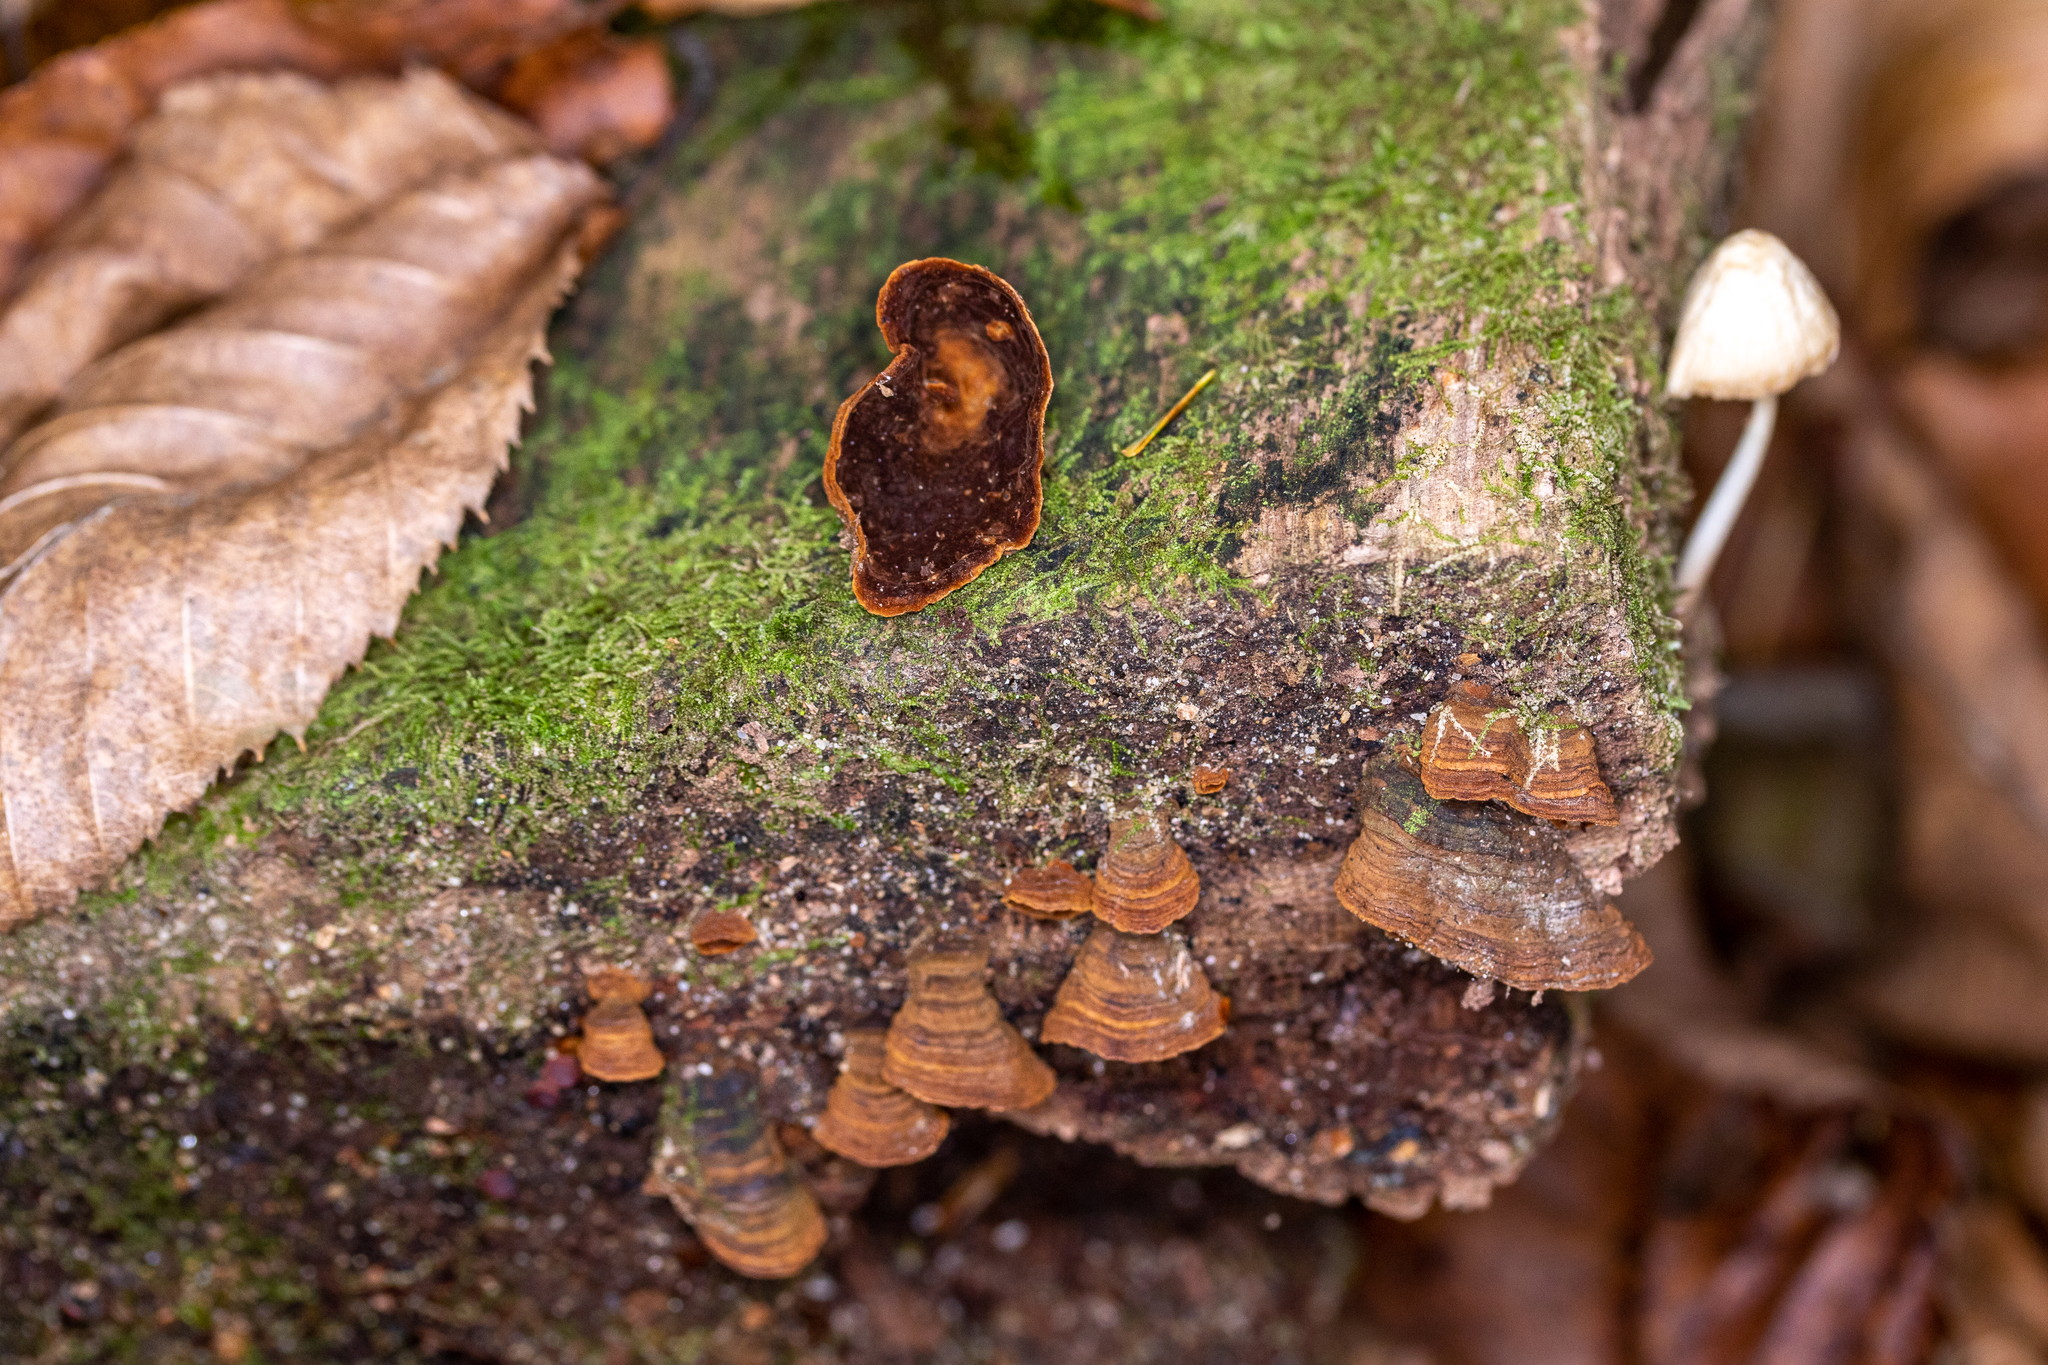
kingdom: Fungi
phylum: Basidiomycota
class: Agaricomycetes
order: Hymenochaetales
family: Hymenochaetaceae
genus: Hymenochaete
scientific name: Hymenochaete rubiginosa
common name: Oak curtain crust
